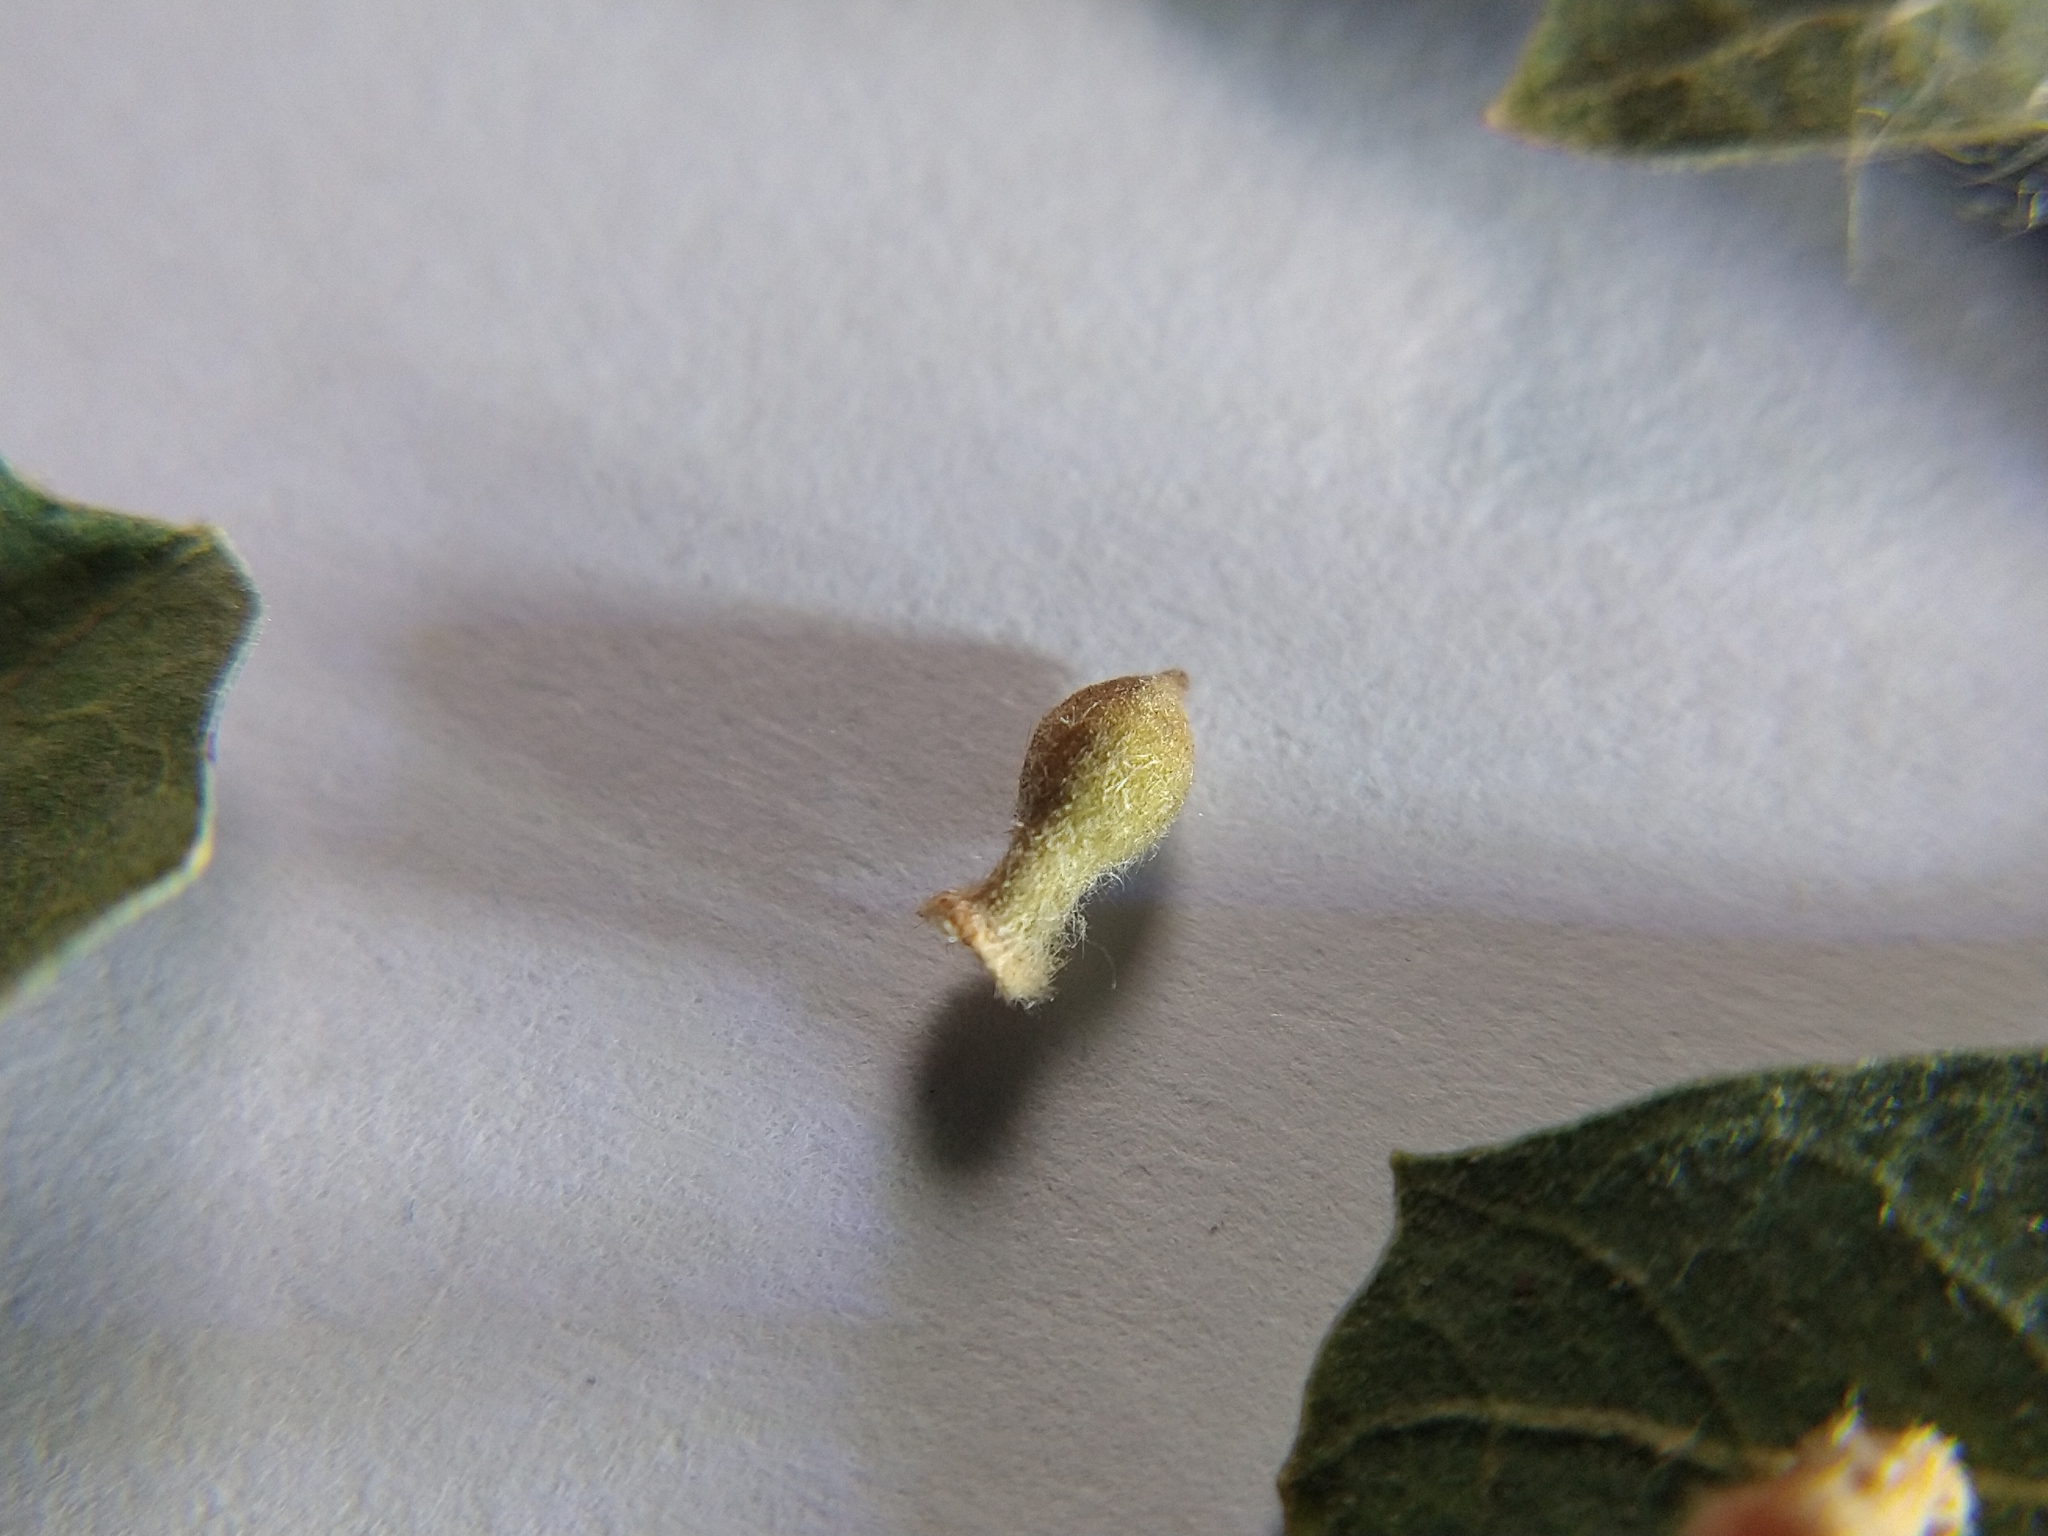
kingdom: Animalia
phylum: Arthropoda
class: Insecta
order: Hymenoptera
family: Cynipidae
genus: Atrusca
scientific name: Atrusca
